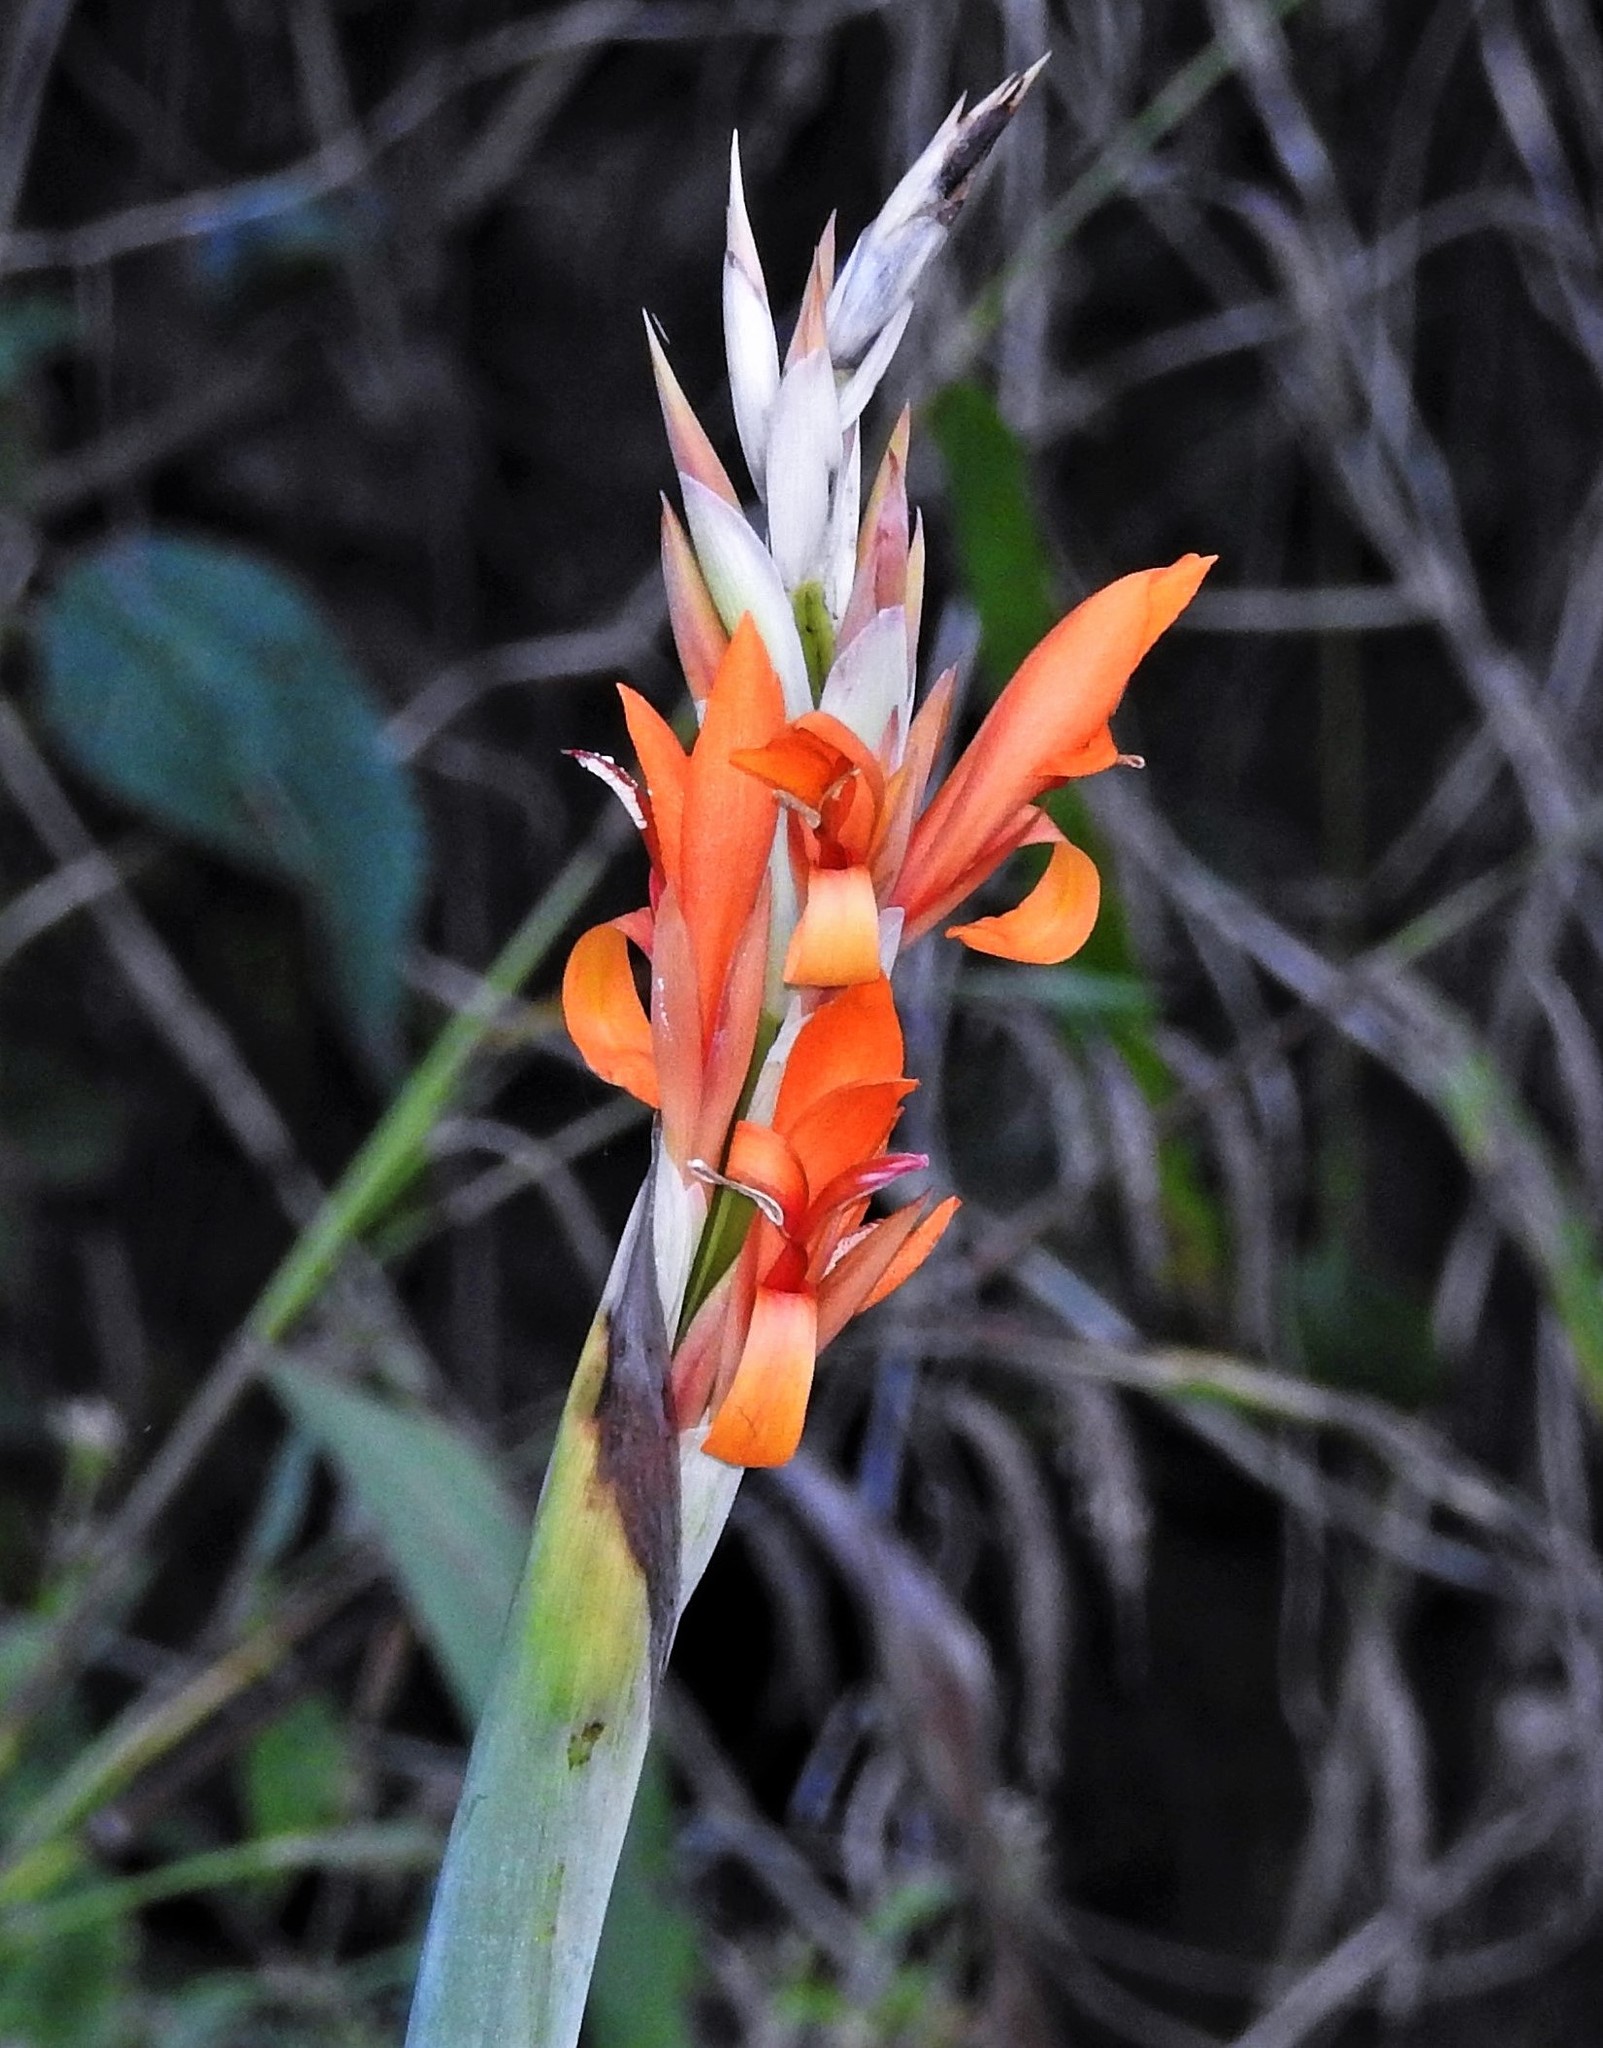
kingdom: Plantae
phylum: Tracheophyta
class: Liliopsida
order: Zingiberales
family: Cannaceae
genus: Canna
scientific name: Canna indica
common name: Indian shot
